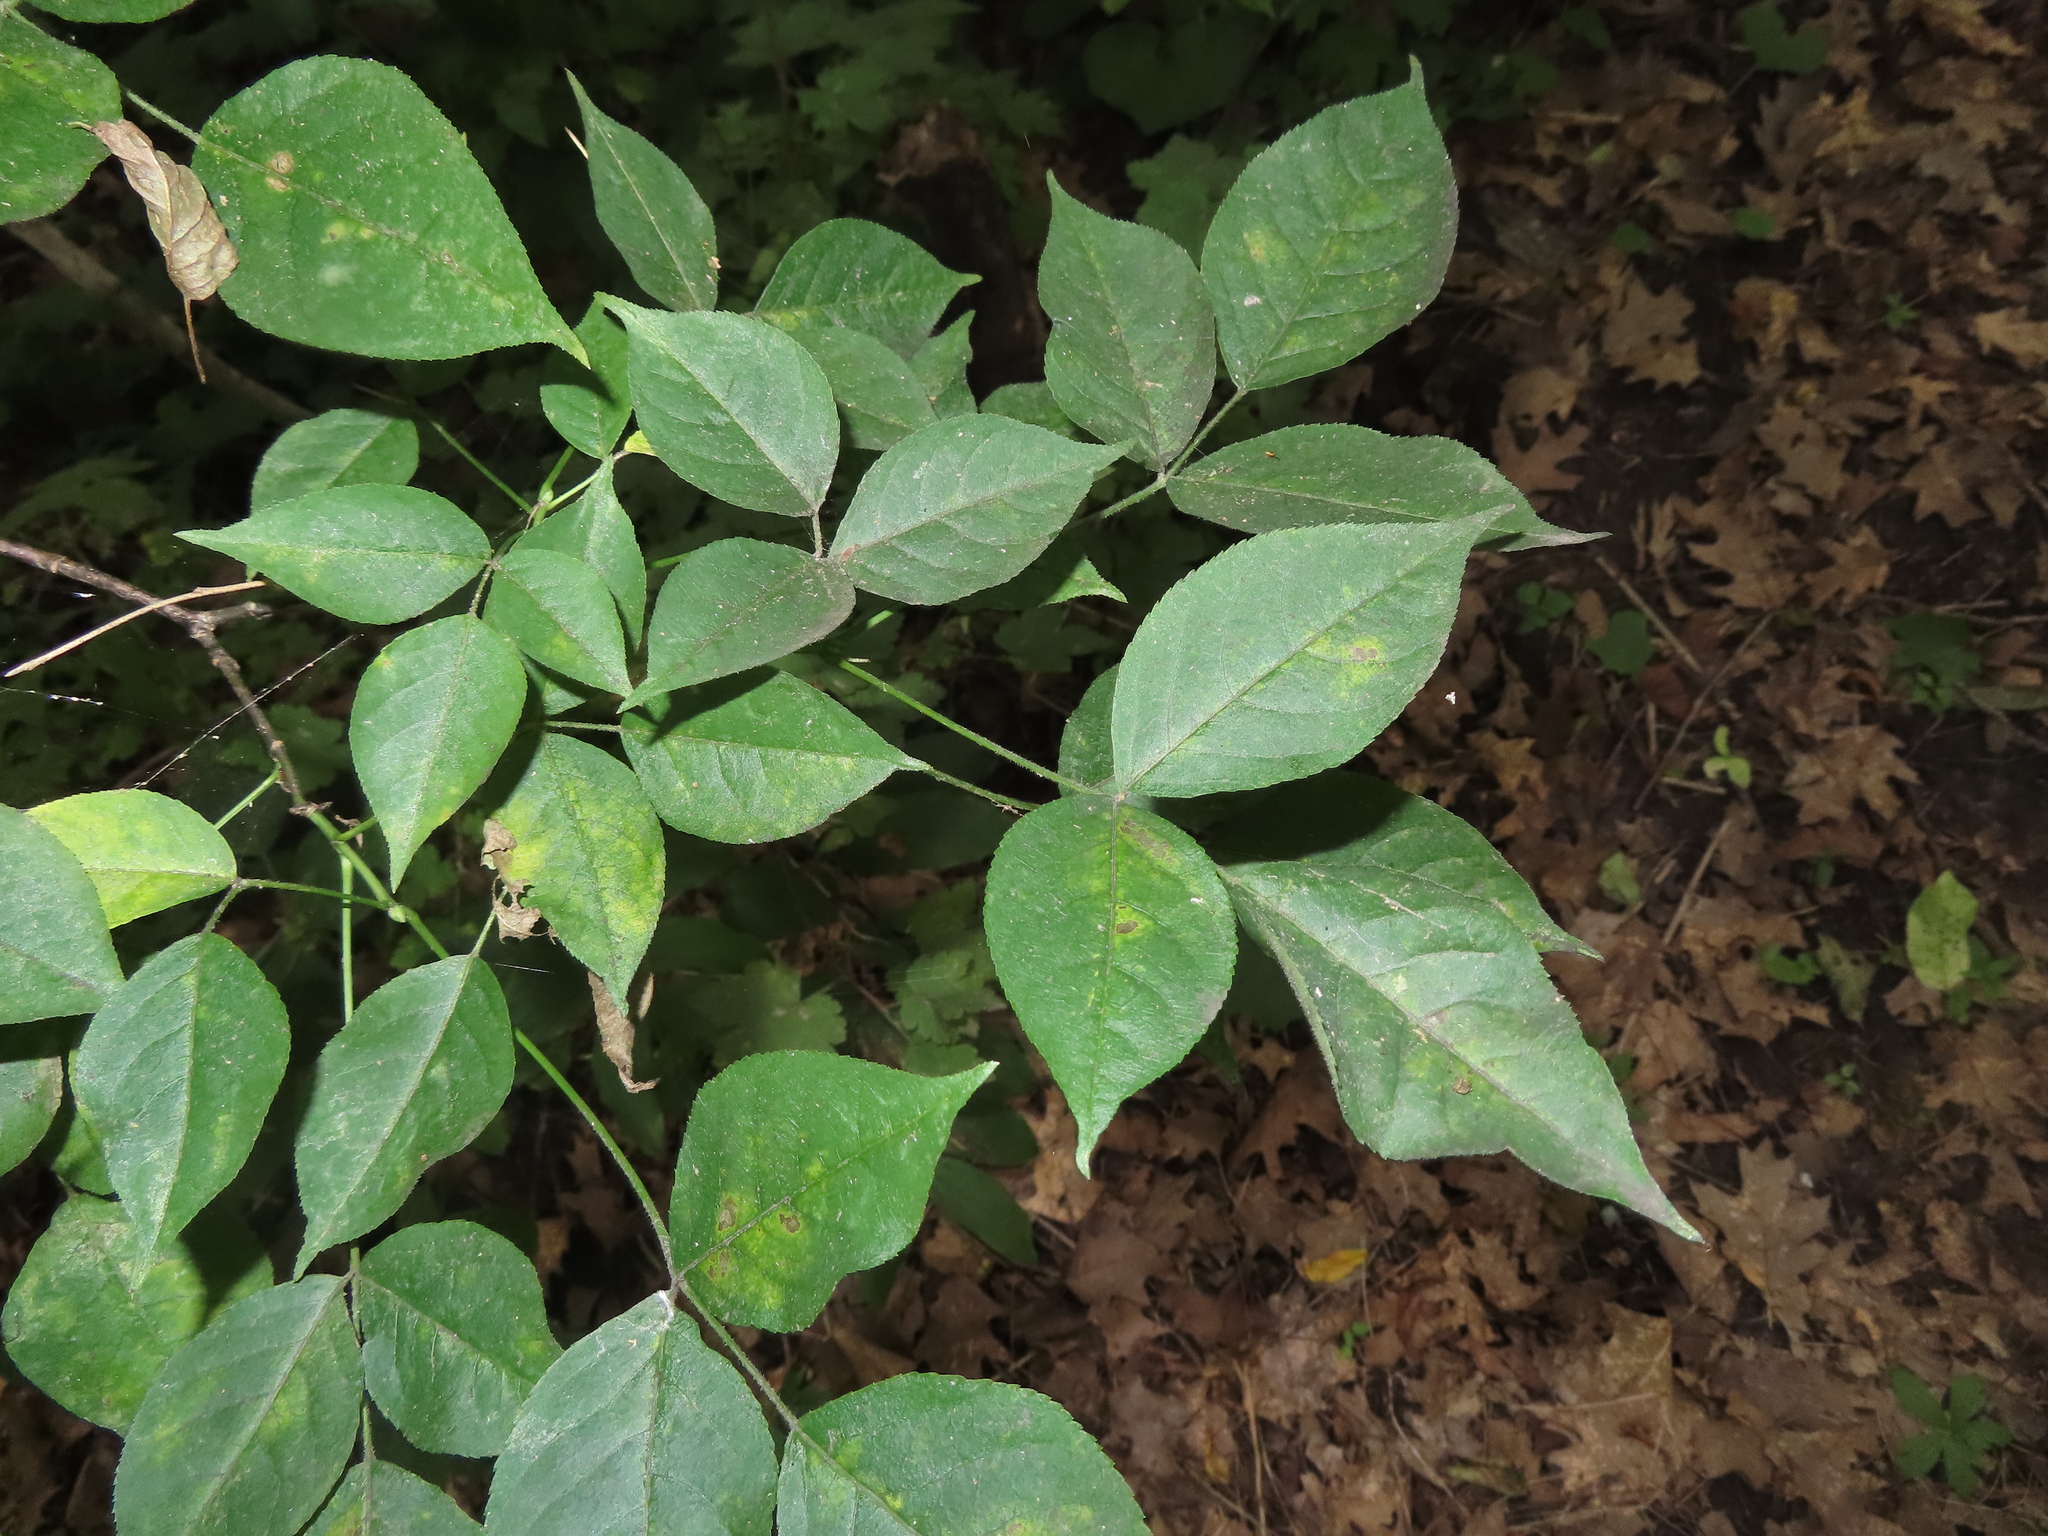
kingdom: Plantae
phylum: Tracheophyta
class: Magnoliopsida
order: Crossosomatales
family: Staphyleaceae
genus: Staphylea
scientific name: Staphylea trifolia
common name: American bladdernut
